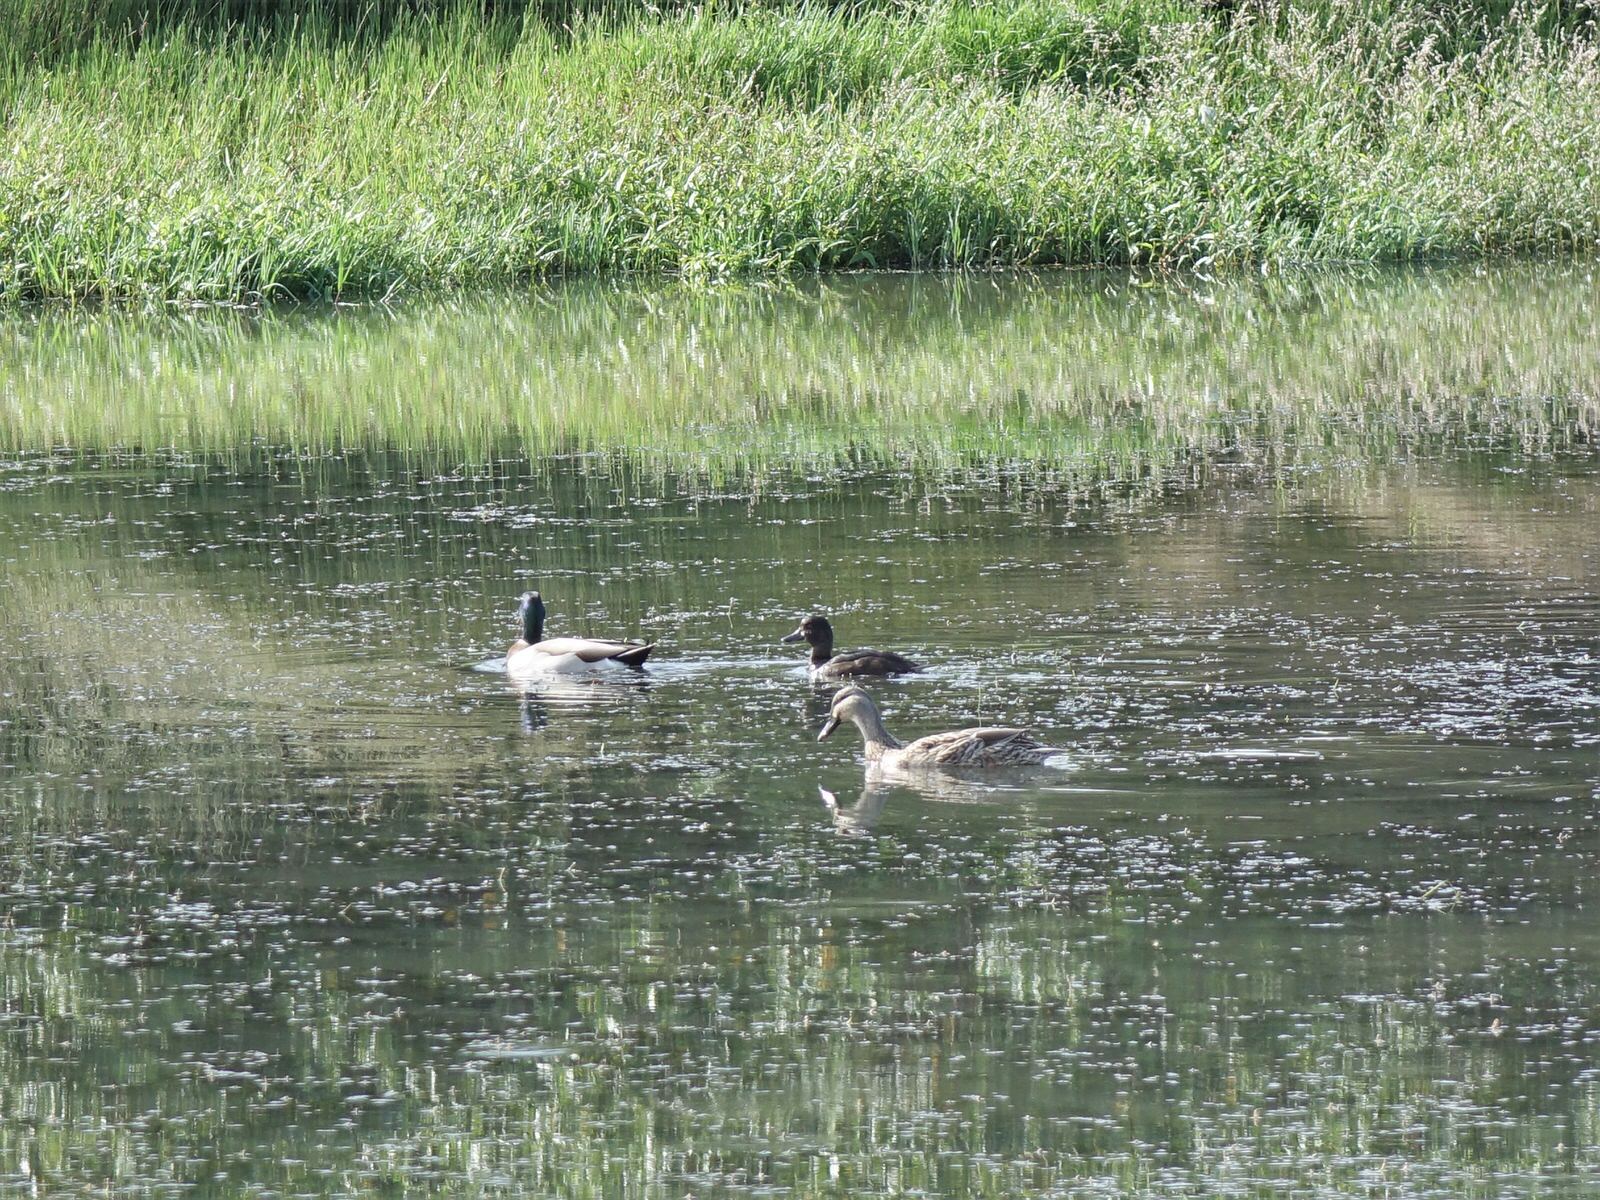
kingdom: Animalia
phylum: Chordata
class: Aves
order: Anseriformes
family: Anatidae
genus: Aythya
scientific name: Aythya novaeseelandiae
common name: New zealand scaup
